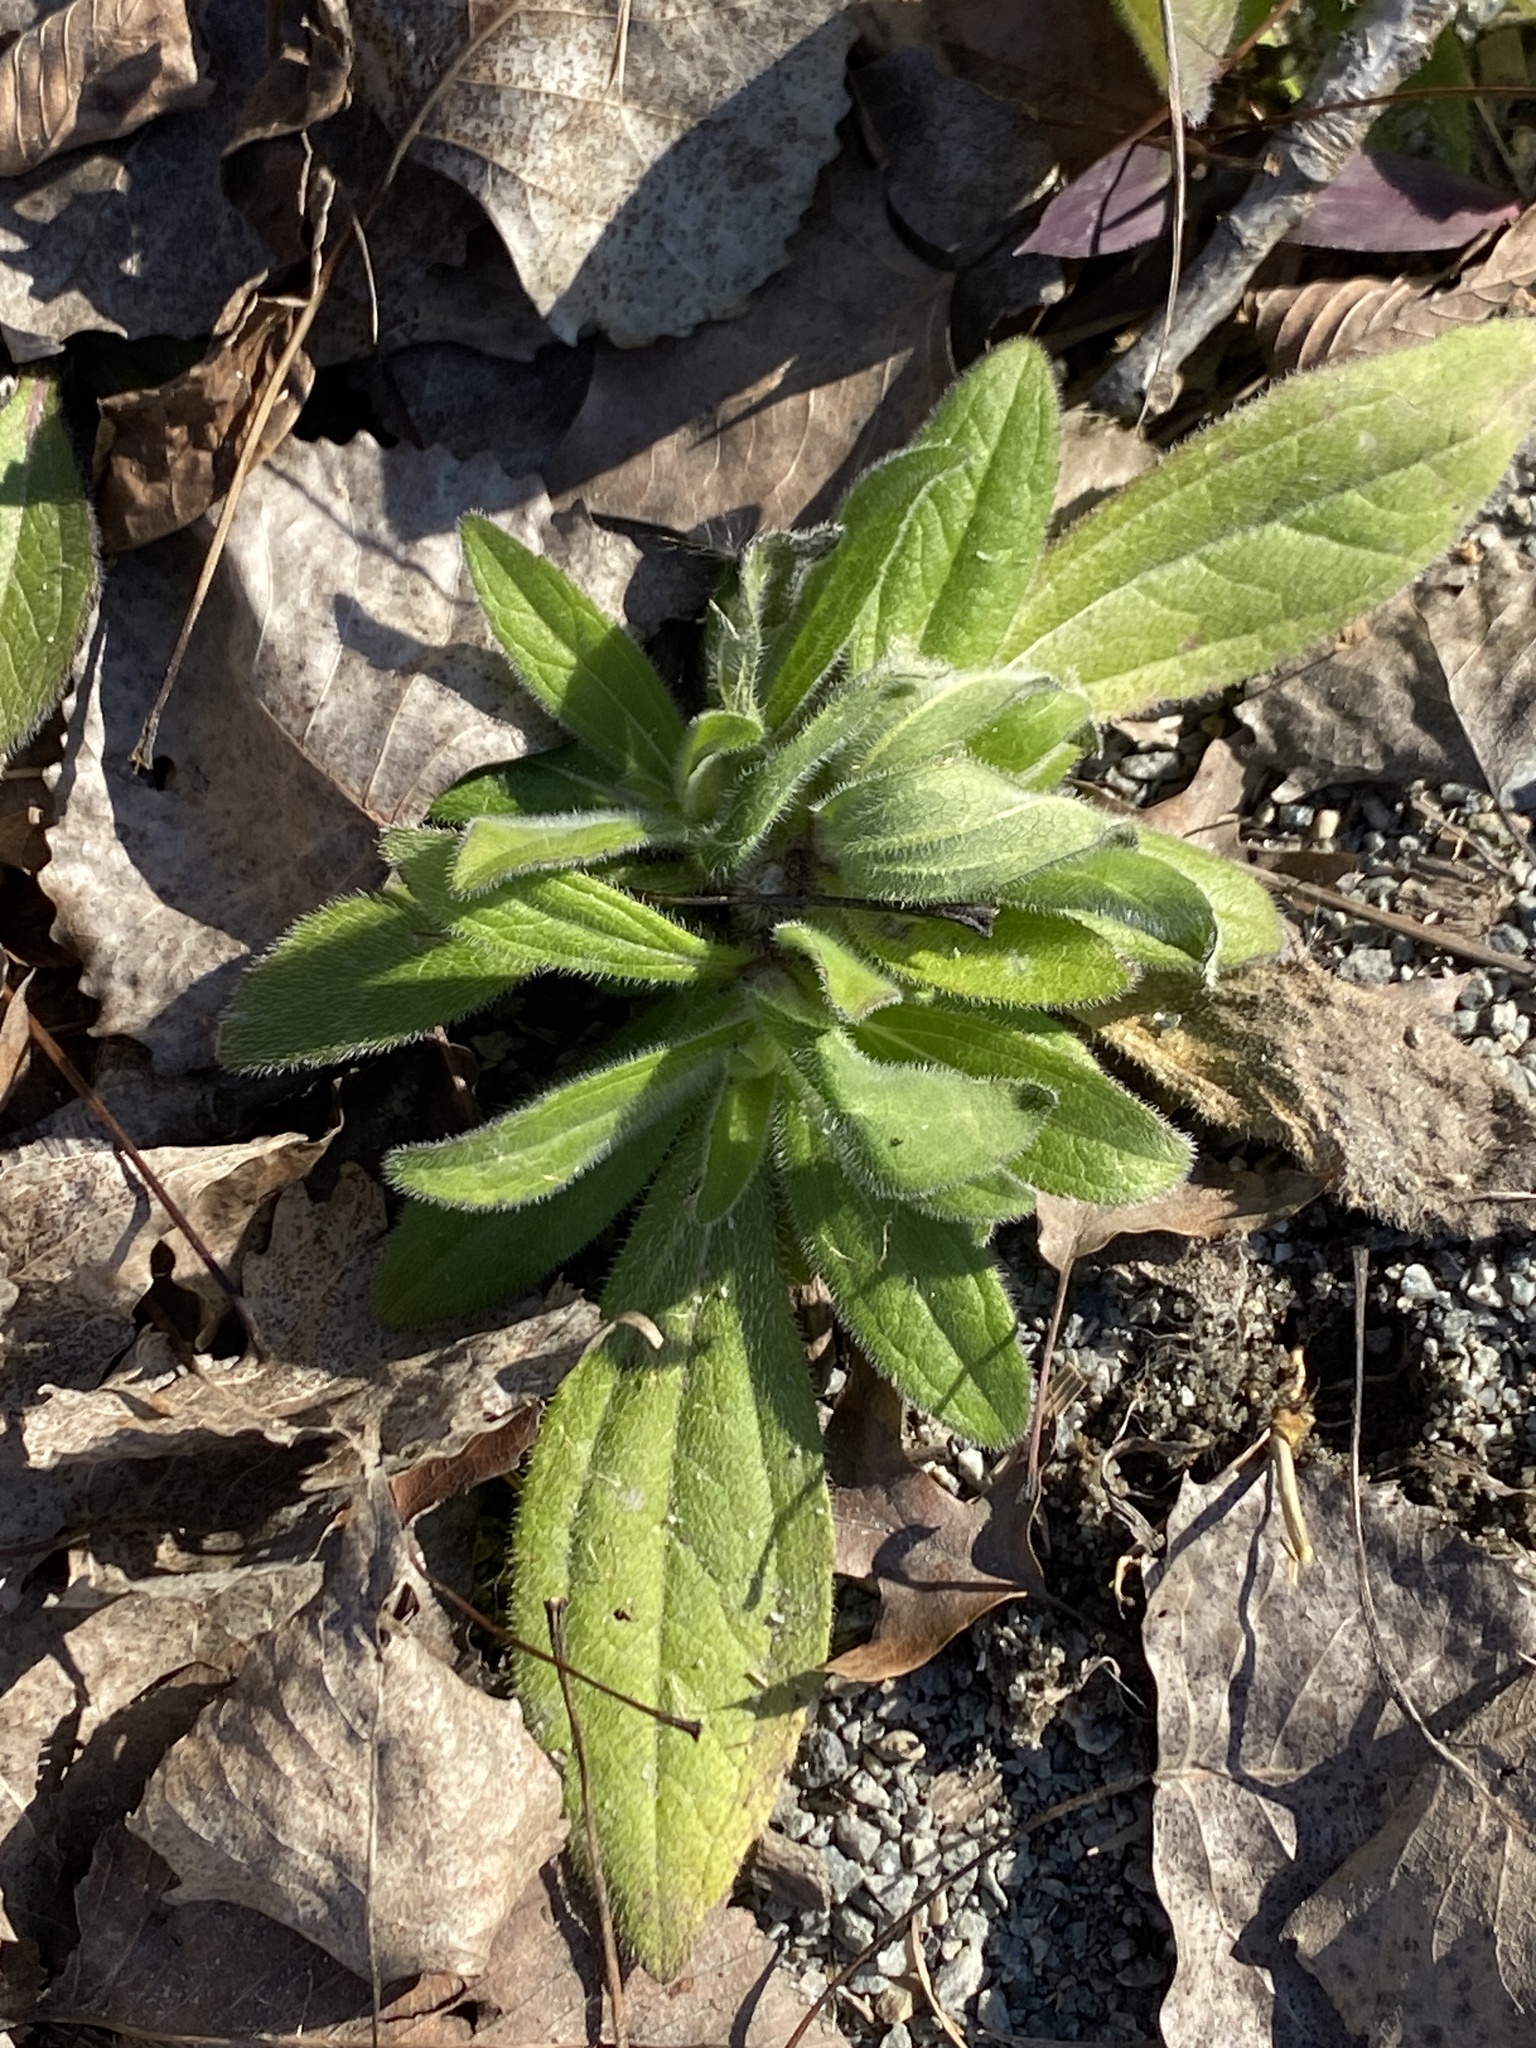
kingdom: Plantae
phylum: Tracheophyta
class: Magnoliopsida
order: Asterales
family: Asteraceae
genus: Rudbeckia
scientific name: Rudbeckia hirta
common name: Black-eyed-susan
